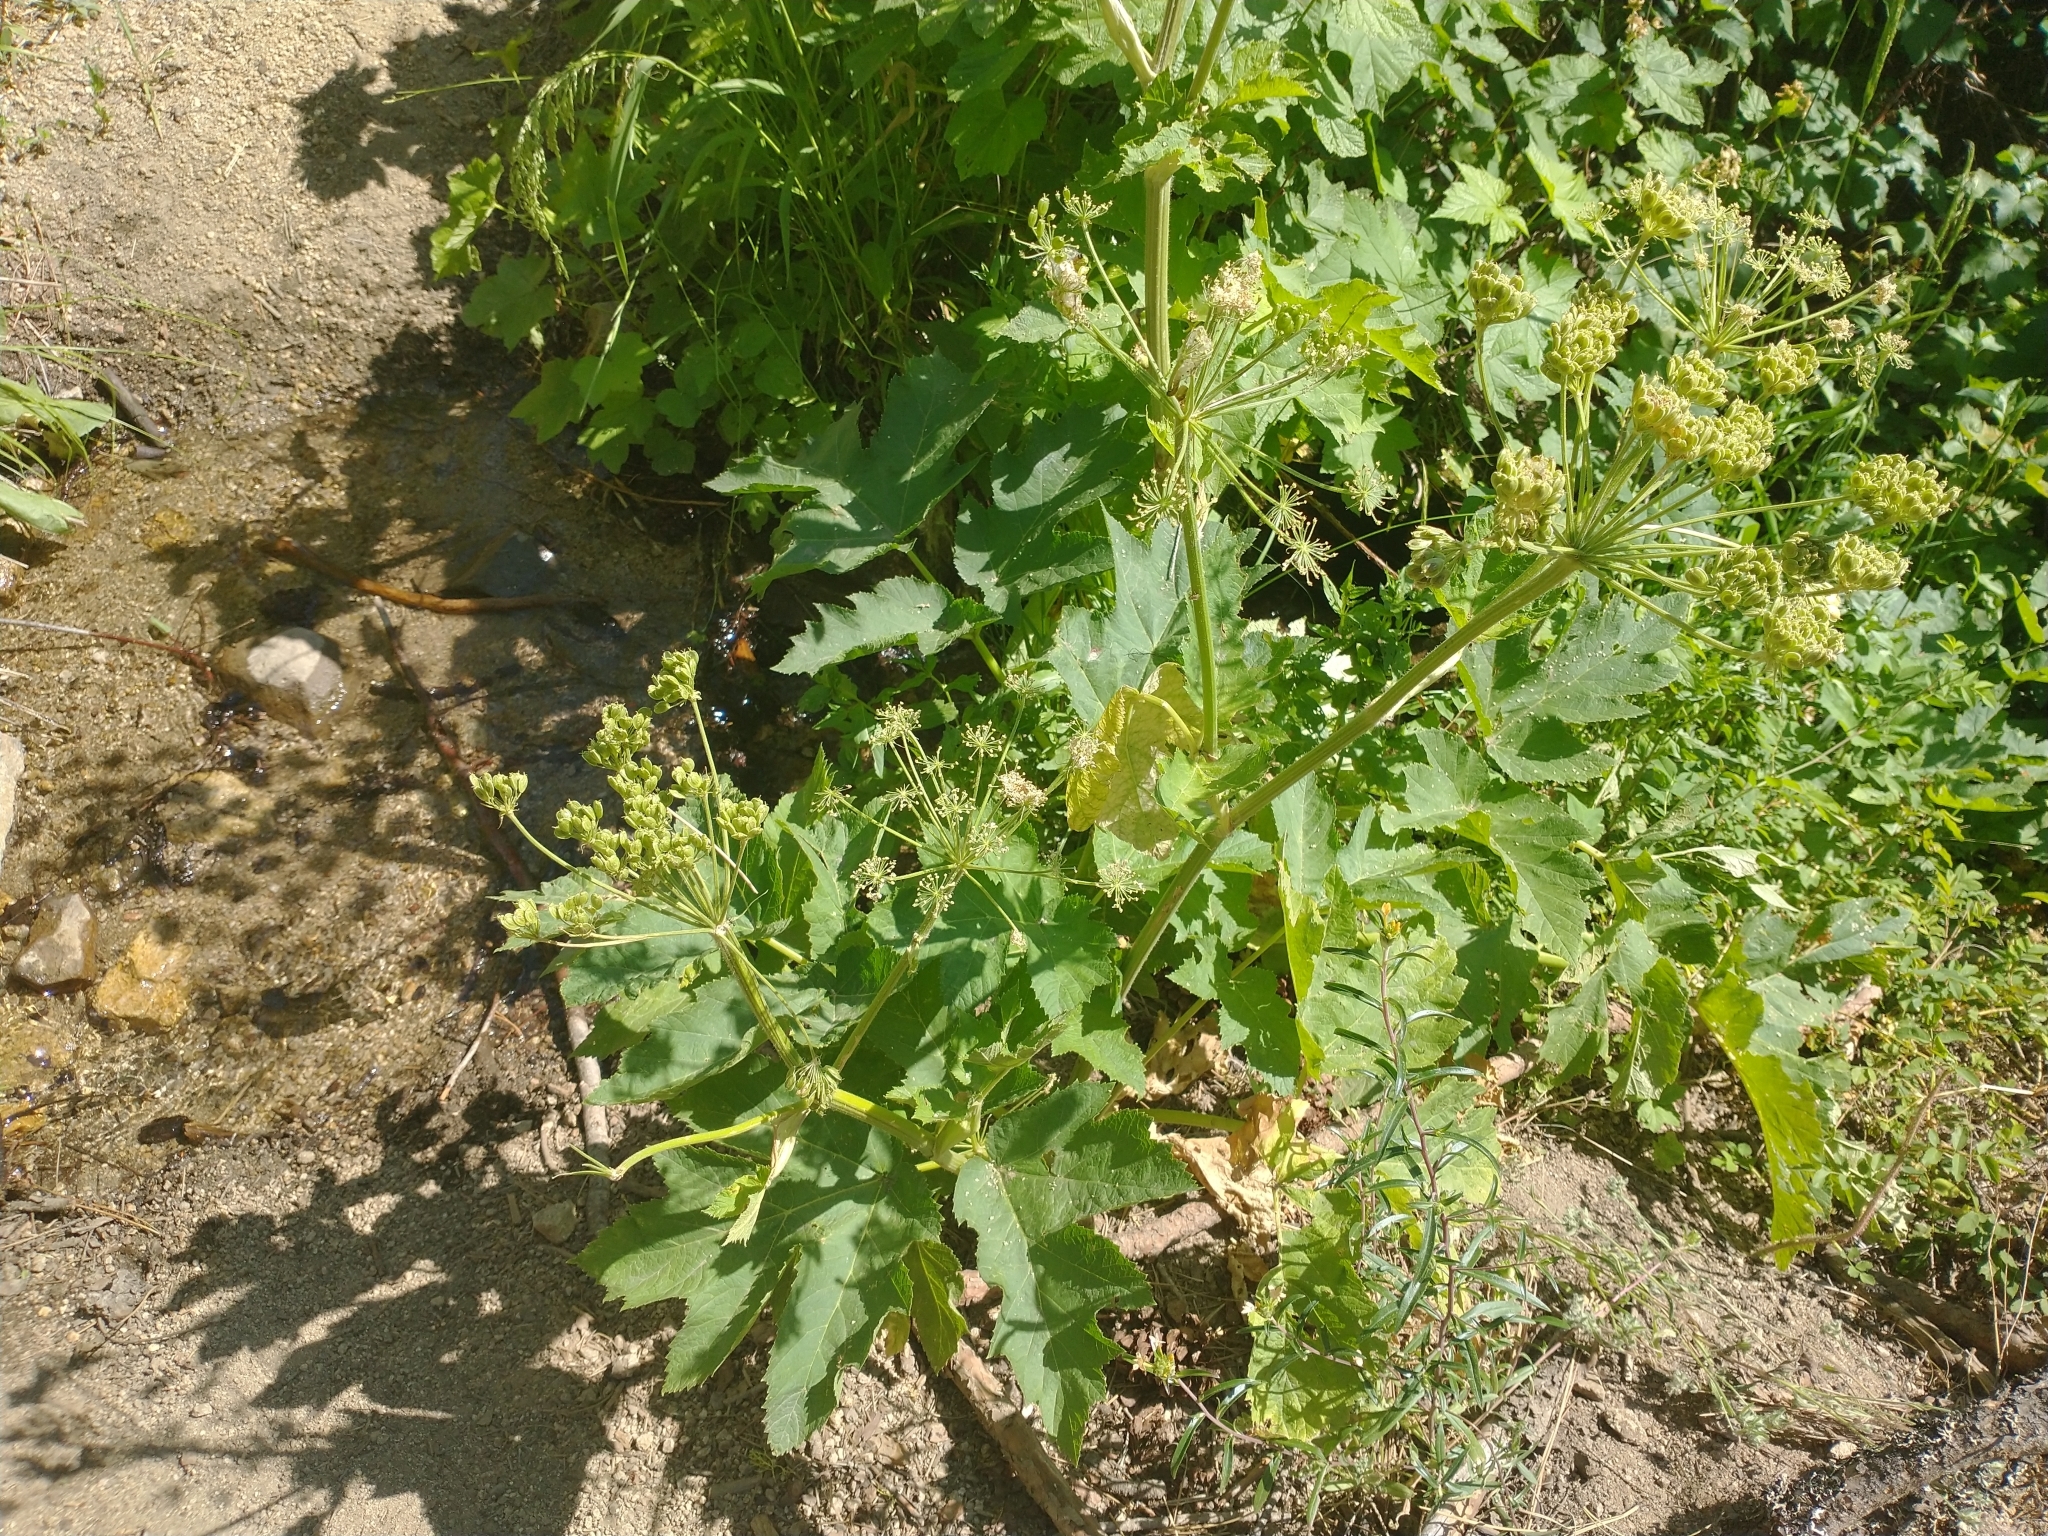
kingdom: Plantae
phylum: Tracheophyta
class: Magnoliopsida
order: Apiales
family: Apiaceae
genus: Heracleum
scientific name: Heracleum maximum
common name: American cow parsnip
